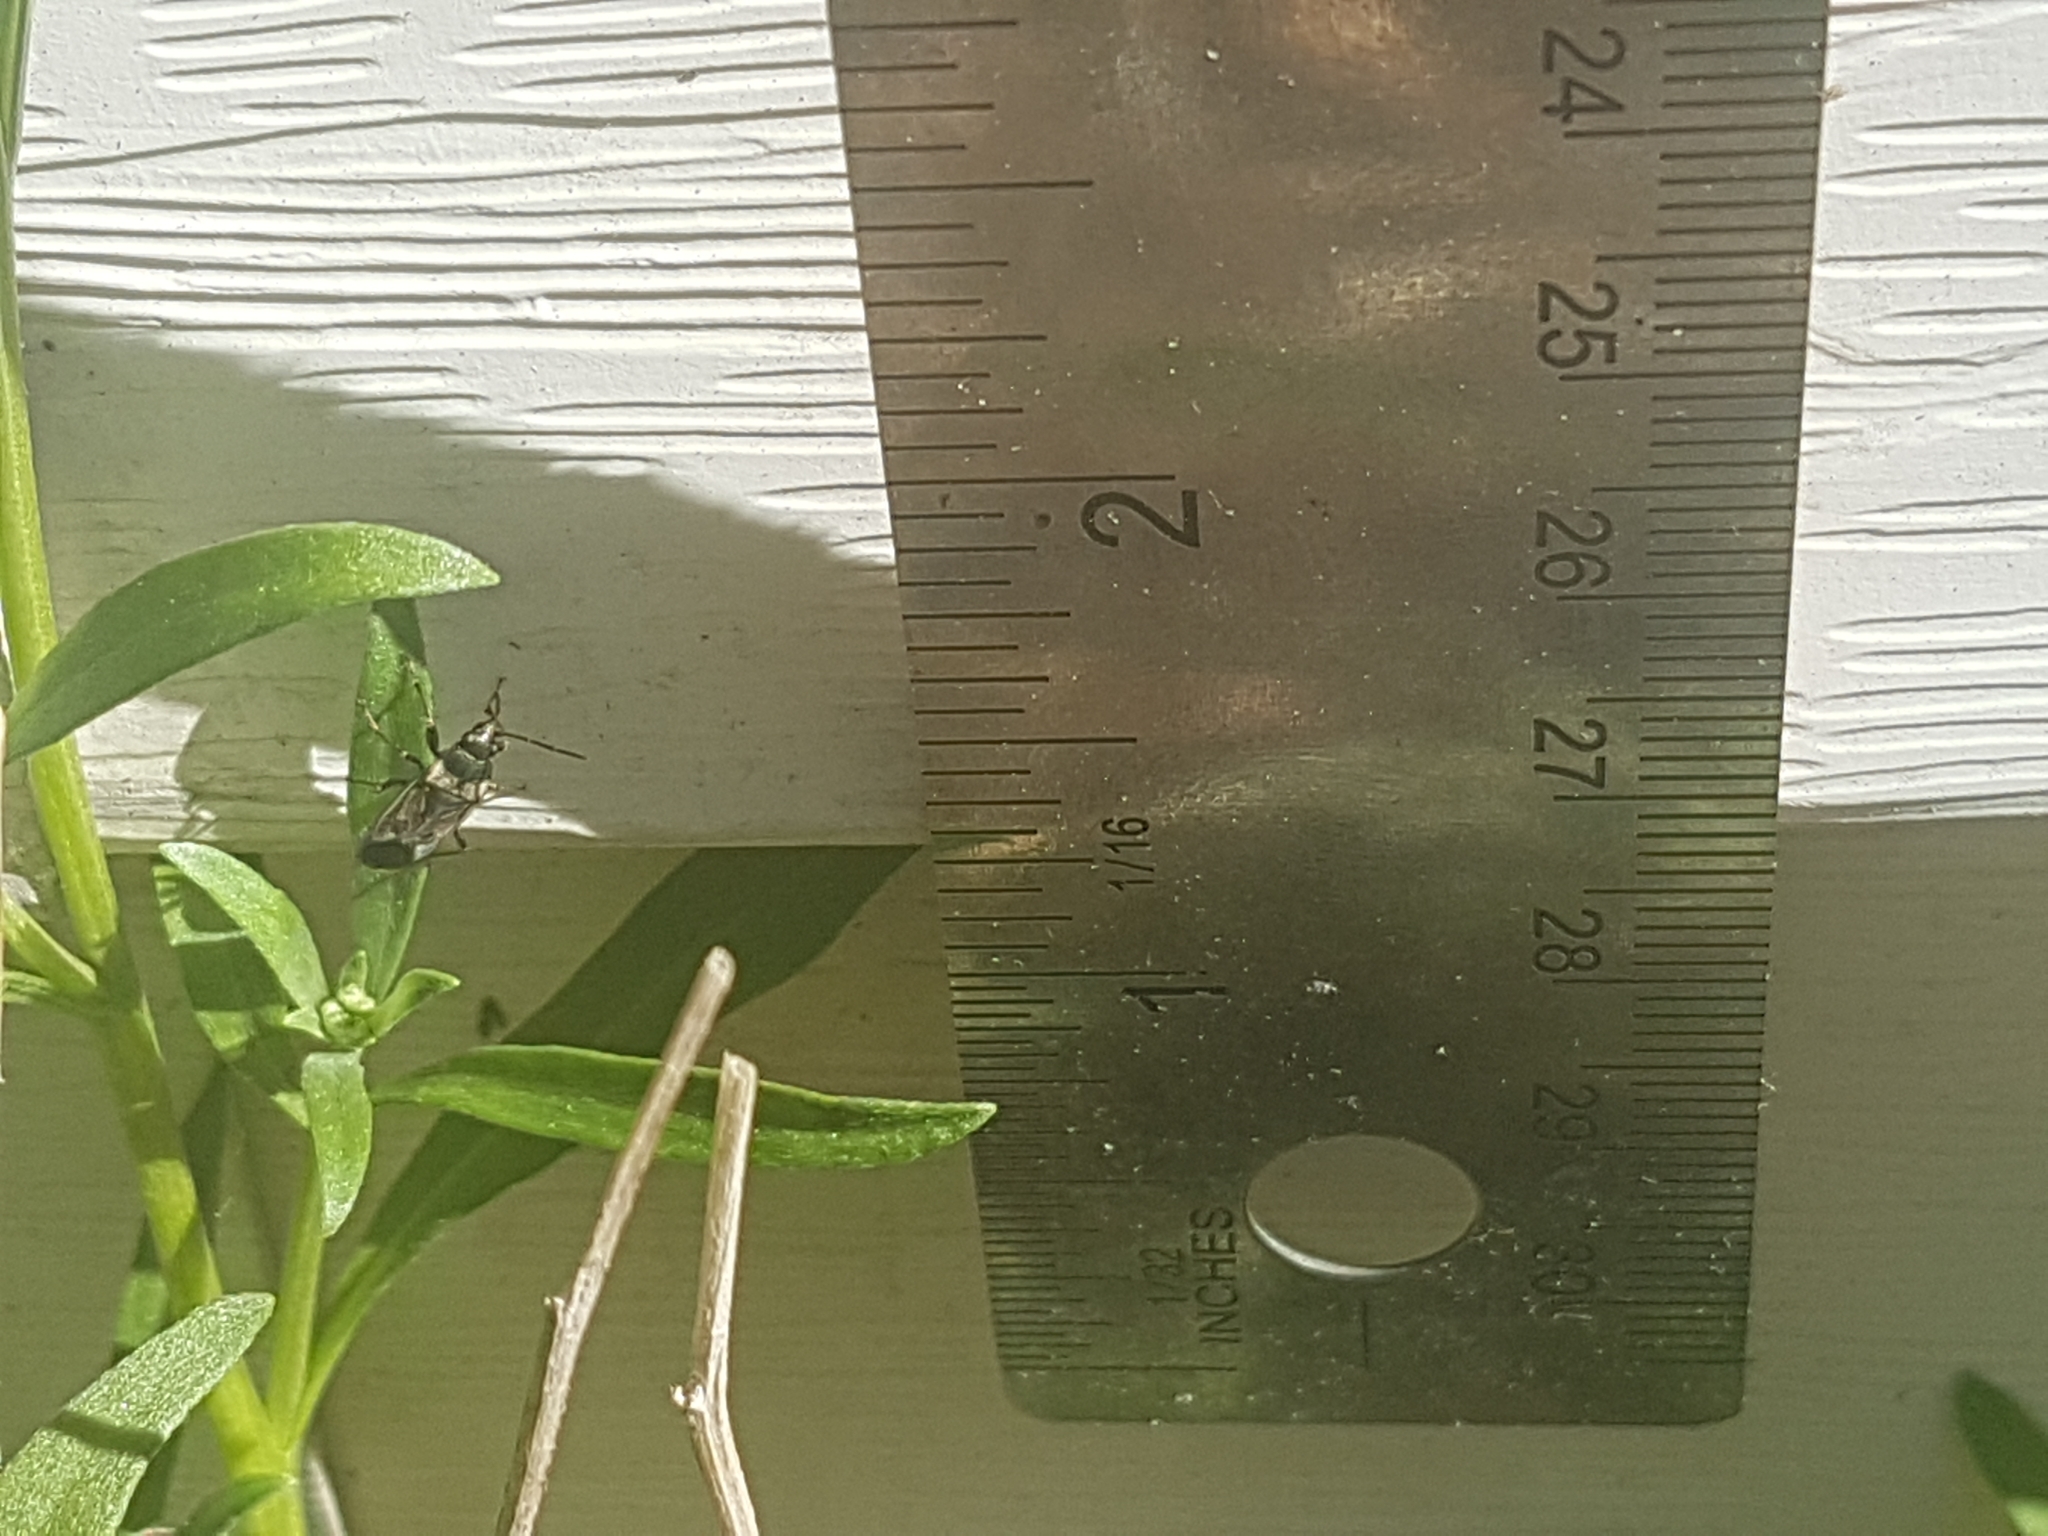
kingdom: Animalia
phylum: Arthropoda
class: Insecta
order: Hemiptera
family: Rhyparochromidae
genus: Rhyparochromus
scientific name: Rhyparochromus vulgaris
